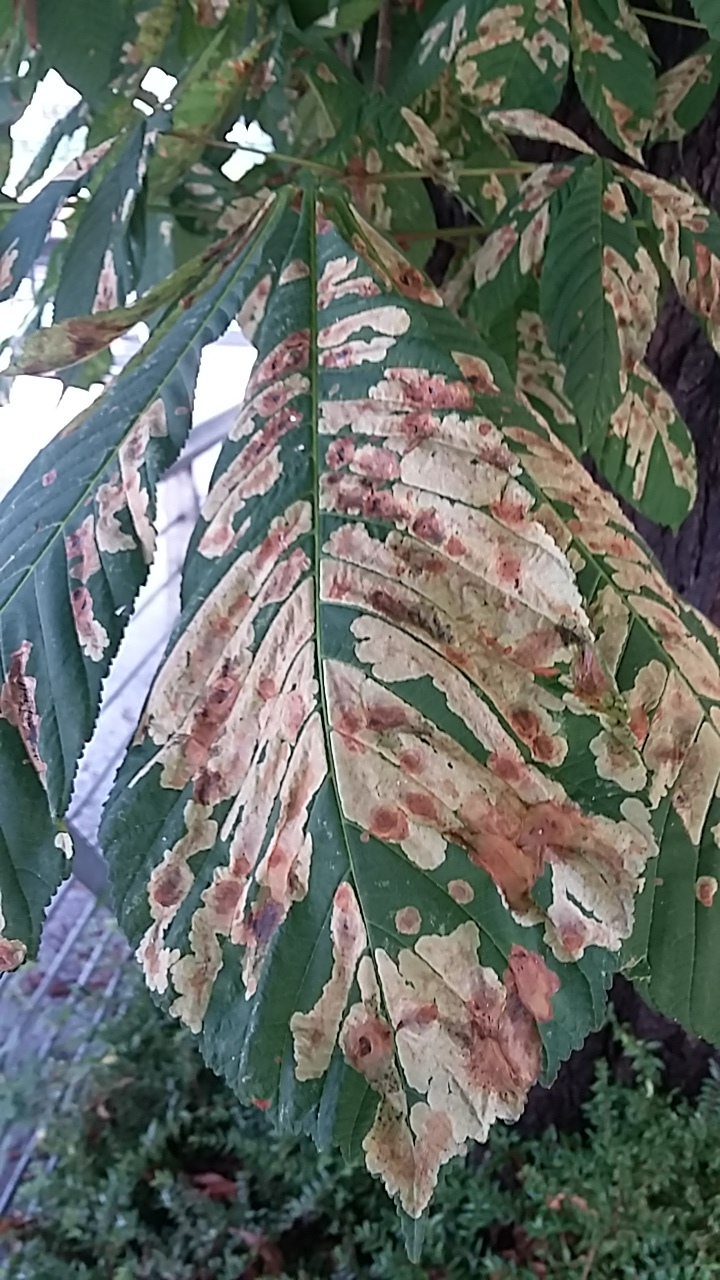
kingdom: Animalia
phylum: Arthropoda
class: Insecta
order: Lepidoptera
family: Gracillariidae
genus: Cameraria
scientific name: Cameraria ohridella
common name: Horse-chestnut leaf-miner
